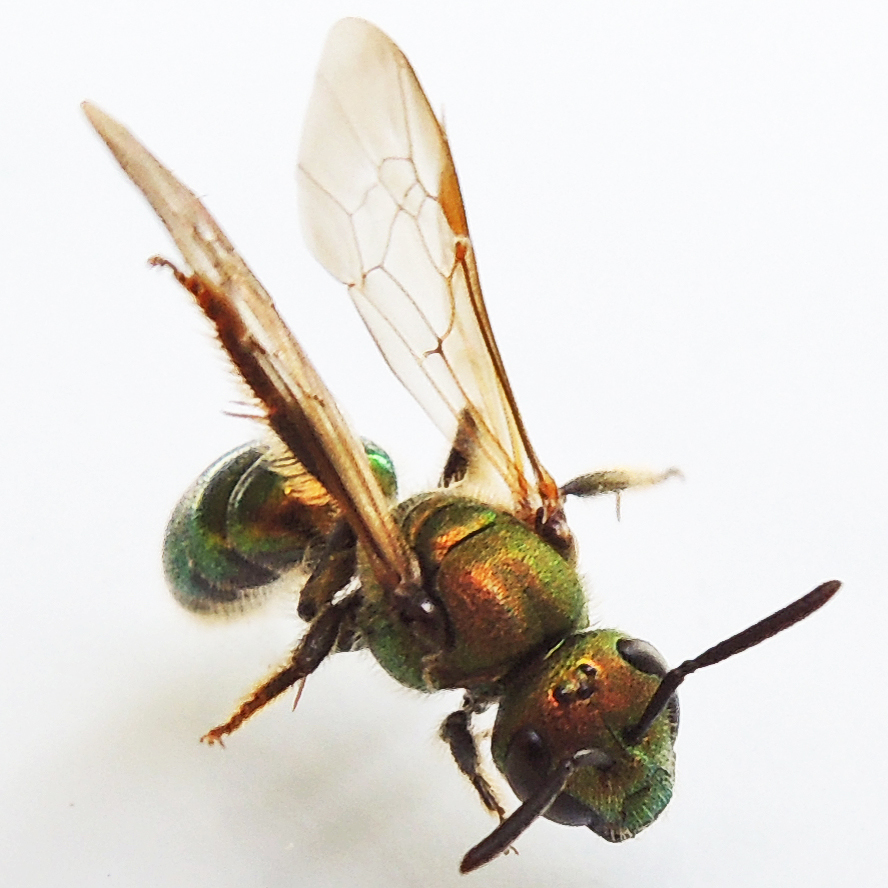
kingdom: Animalia
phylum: Arthropoda
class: Insecta
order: Hymenoptera
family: Halictidae
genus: Augochlora
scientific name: Augochlora pura
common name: Pure green sweat bee
